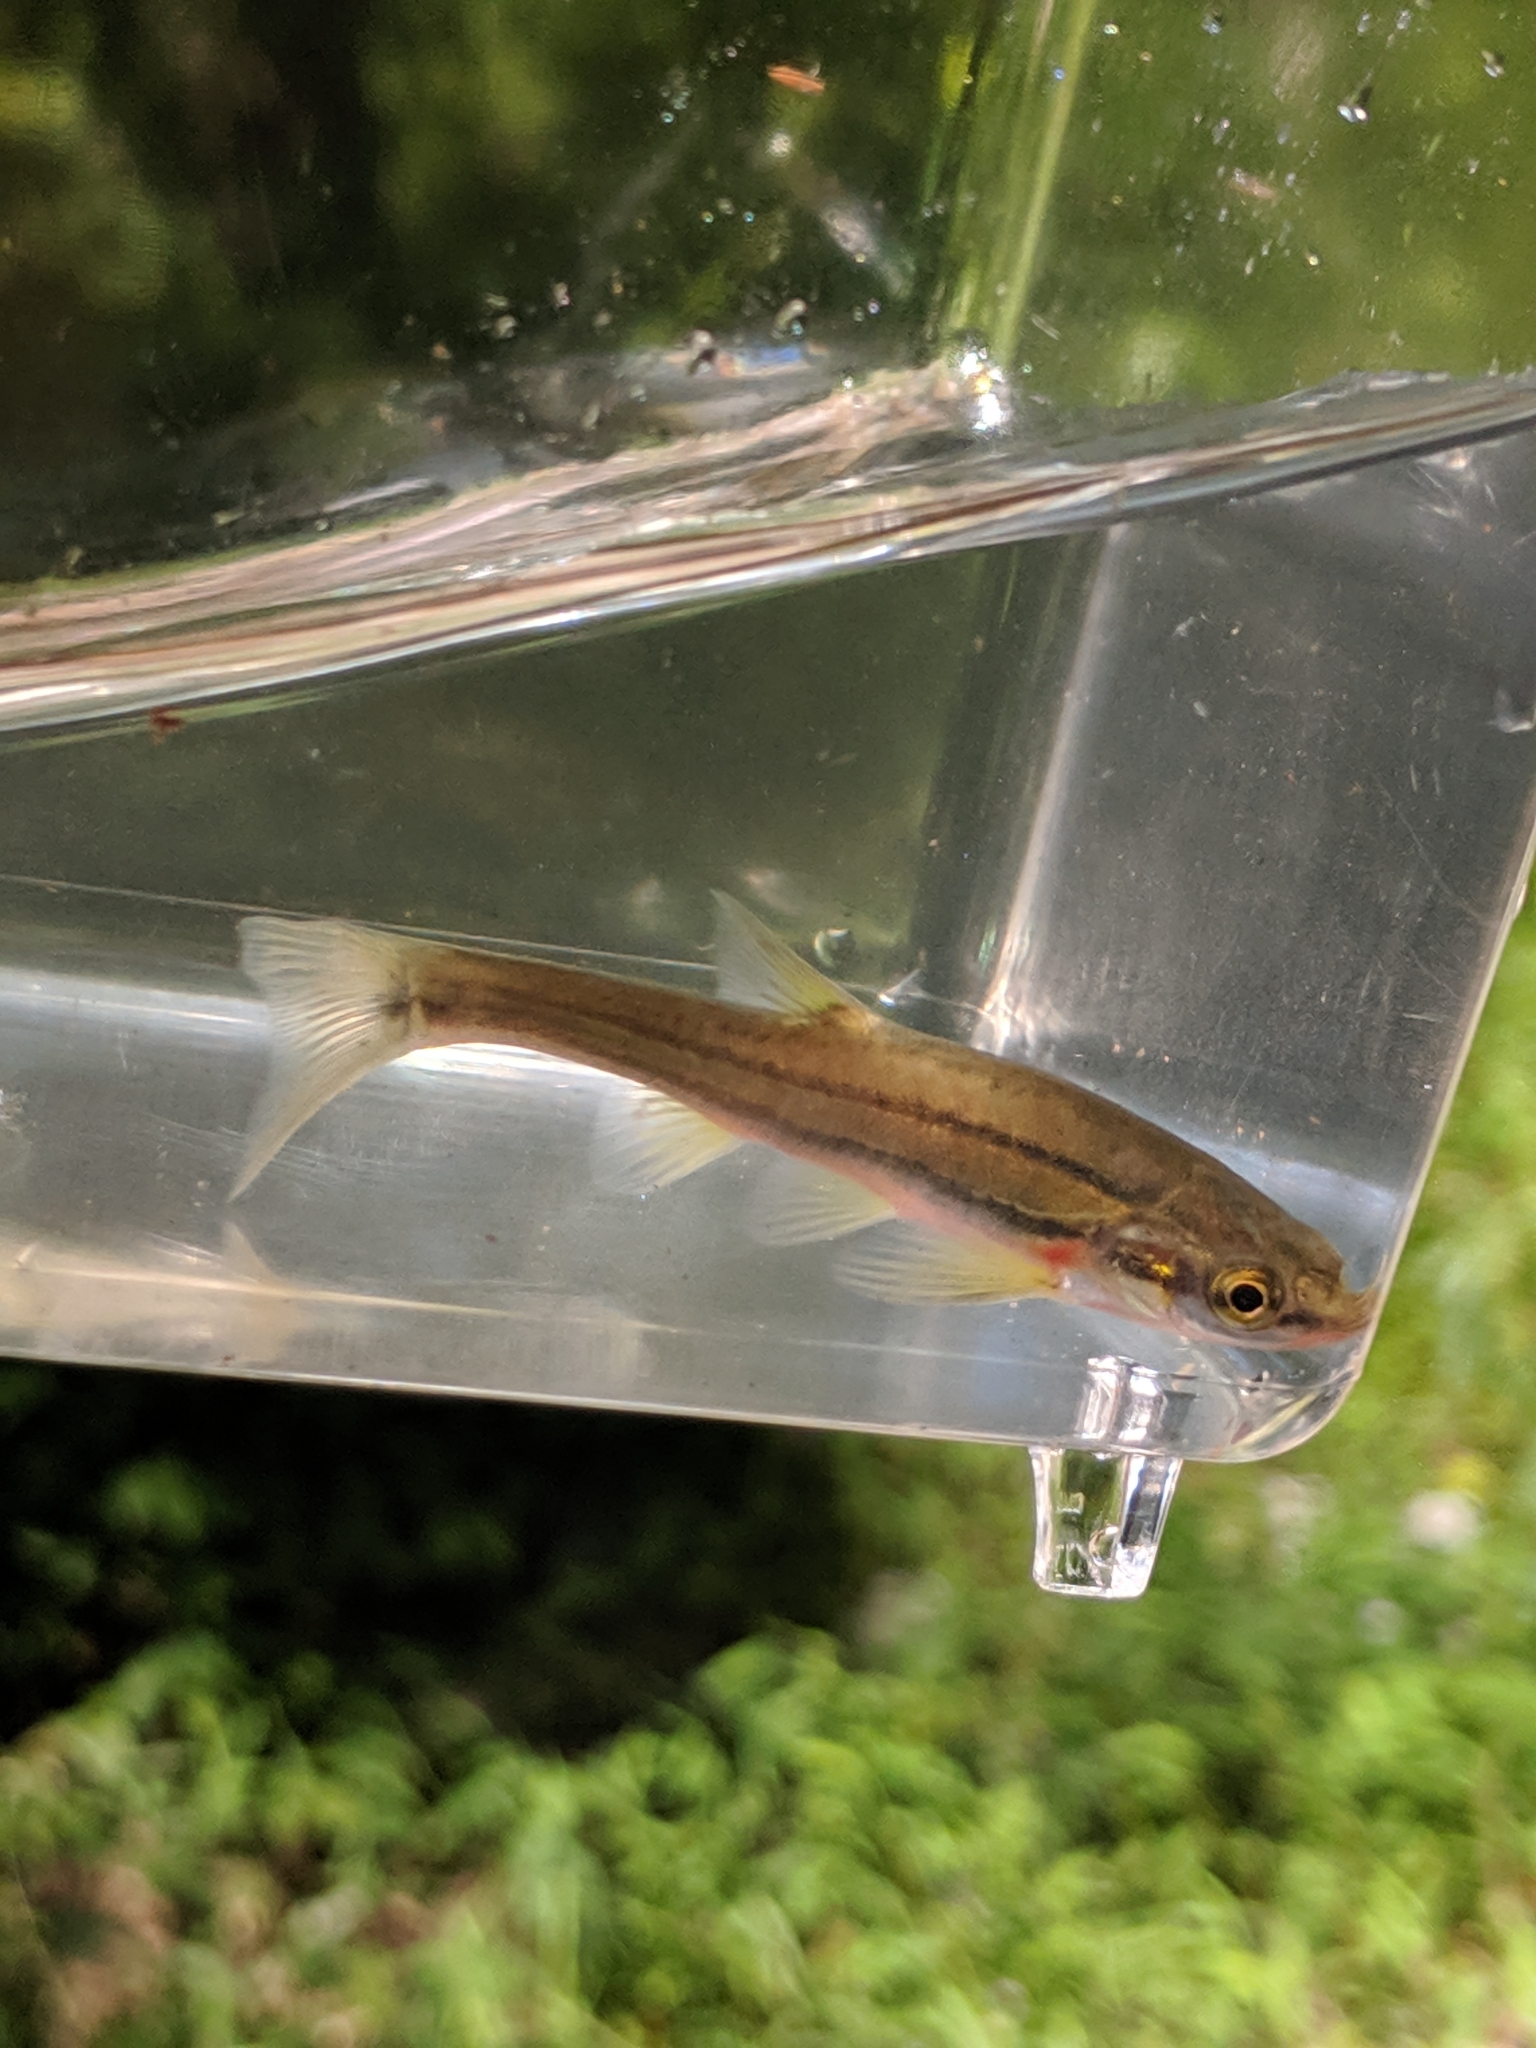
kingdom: Animalia
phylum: Chordata
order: Cypriniformes
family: Cyprinidae
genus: Chrosomus
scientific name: Chrosomus erythrogaster
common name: Southern redbelly dace
